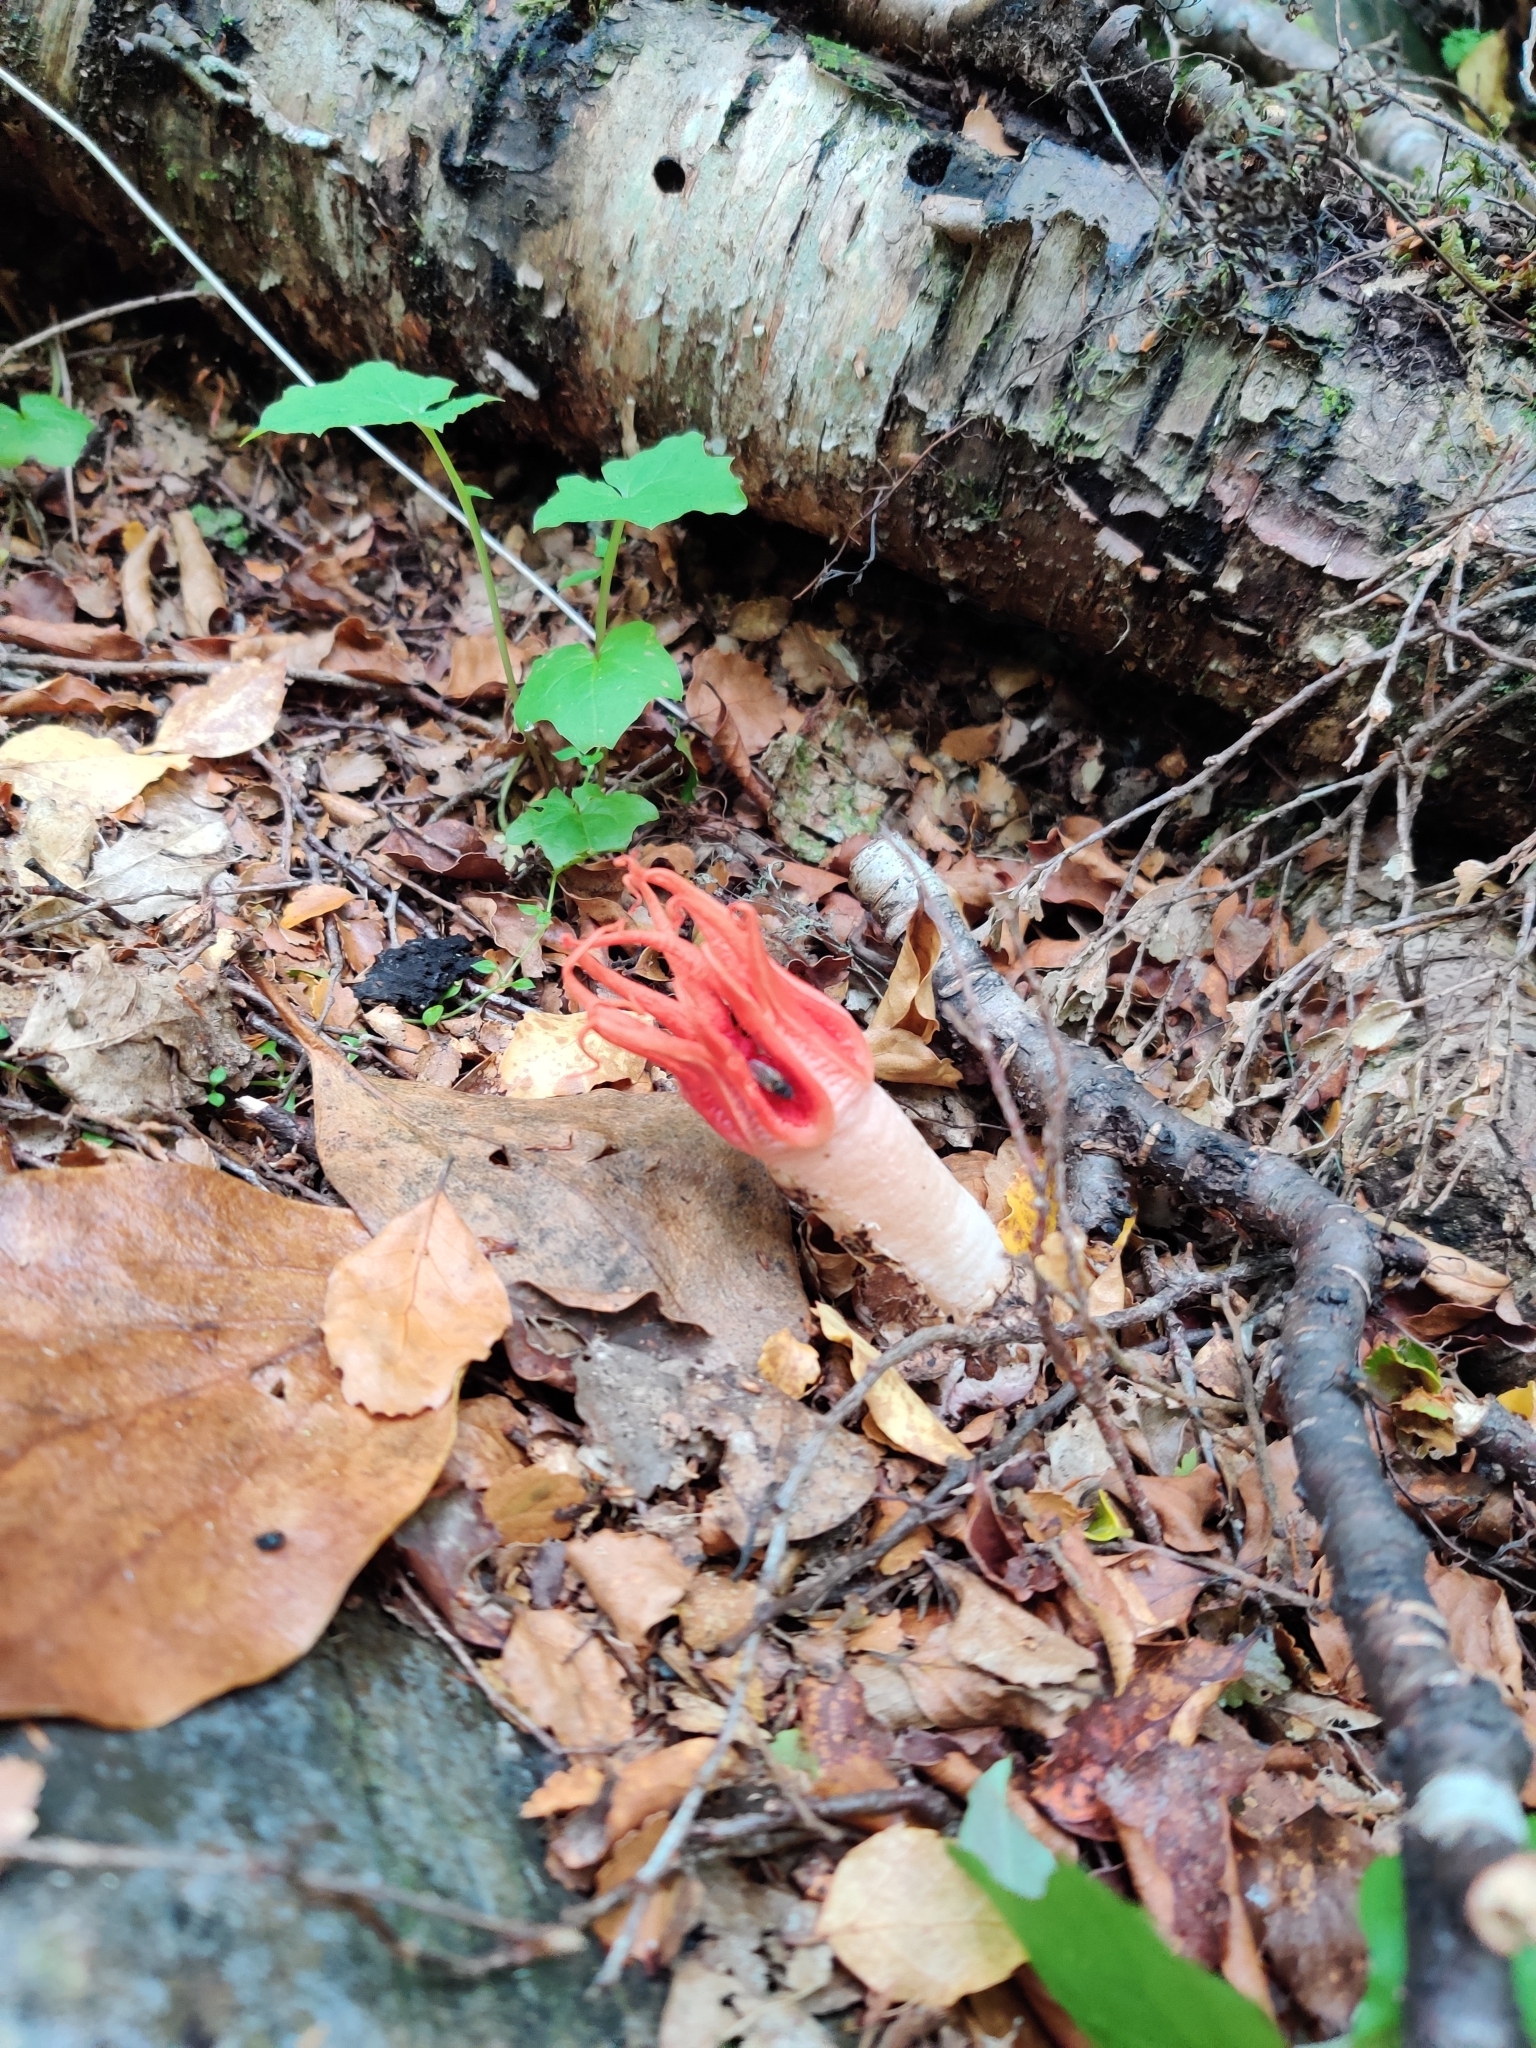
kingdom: Fungi
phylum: Basidiomycota
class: Agaricomycetes
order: Phallales
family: Phallaceae
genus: Aseroe
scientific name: Aseroe rubra
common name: Starfish fungus
